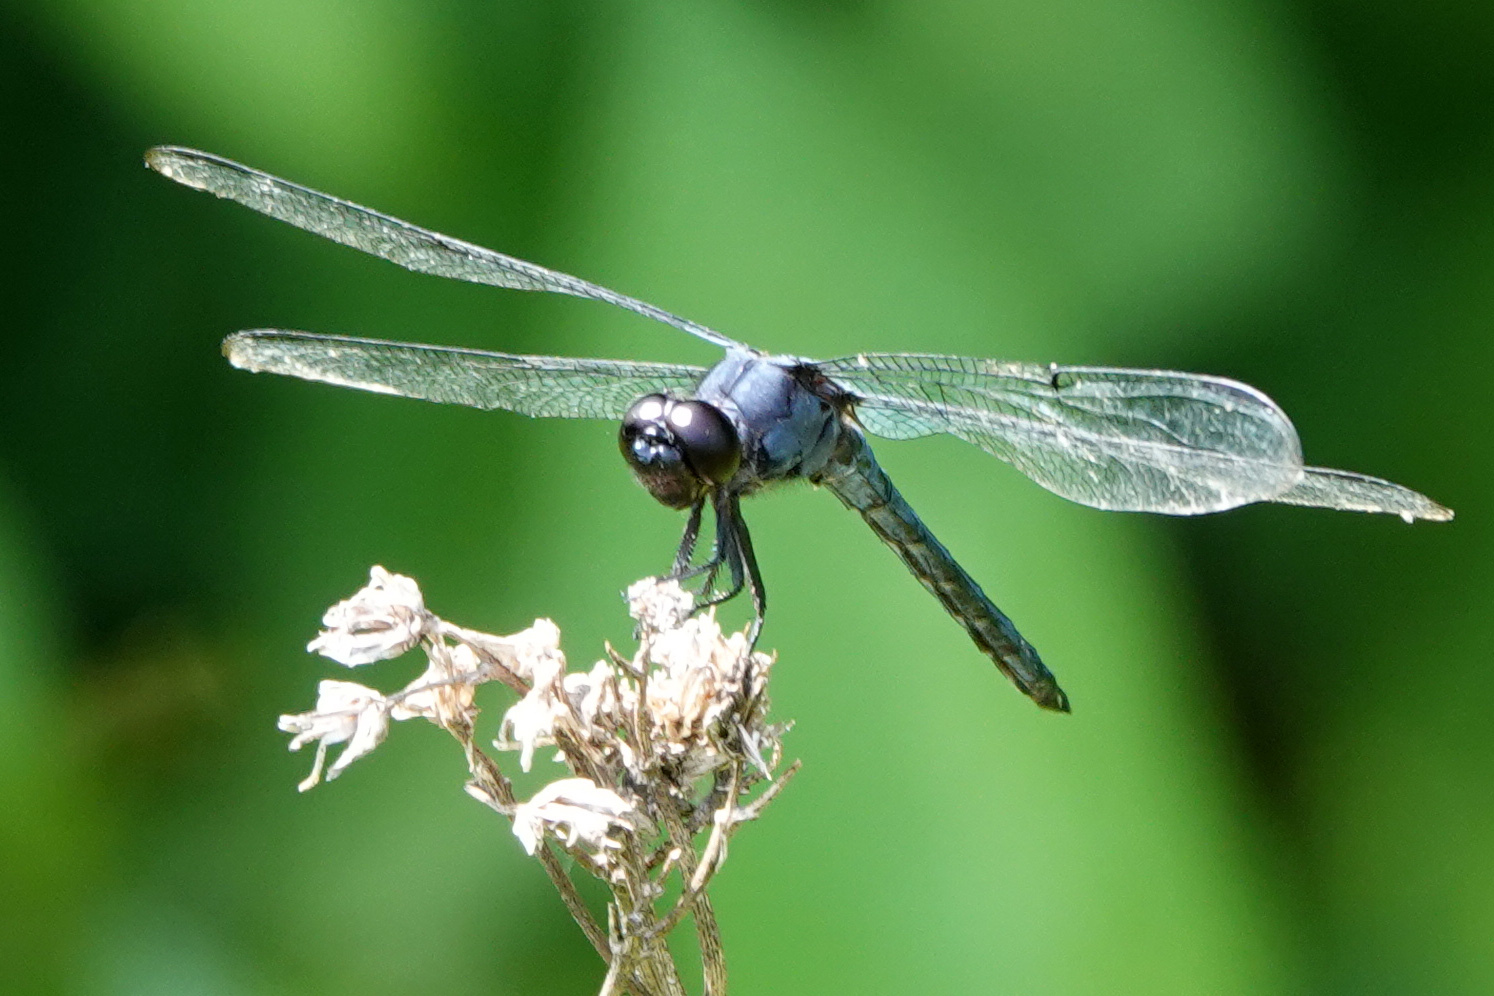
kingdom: Animalia
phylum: Arthropoda
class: Insecta
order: Odonata
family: Libellulidae
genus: Libellula
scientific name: Libellula incesta
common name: Slaty skimmer
